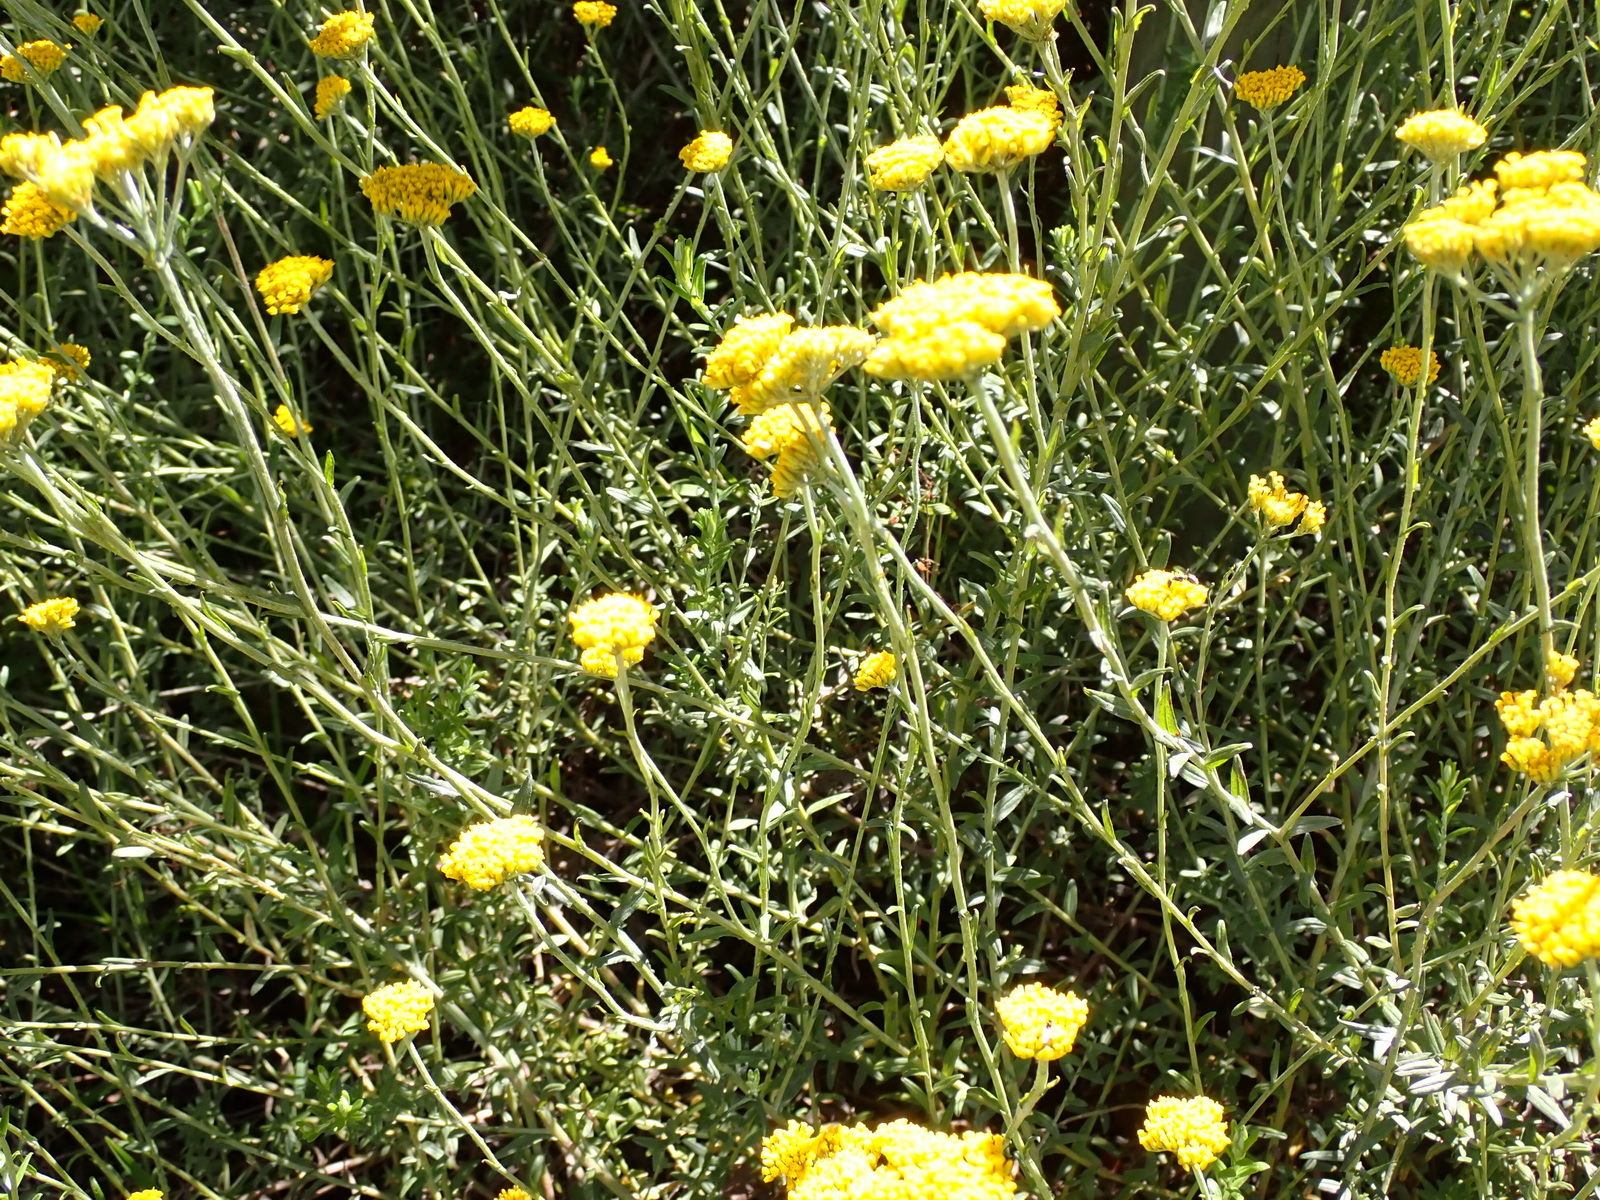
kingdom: Plantae
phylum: Tracheophyta
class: Magnoliopsida
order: Asterales
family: Asteraceae
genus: Helichrysum
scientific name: Helichrysum cymosum
